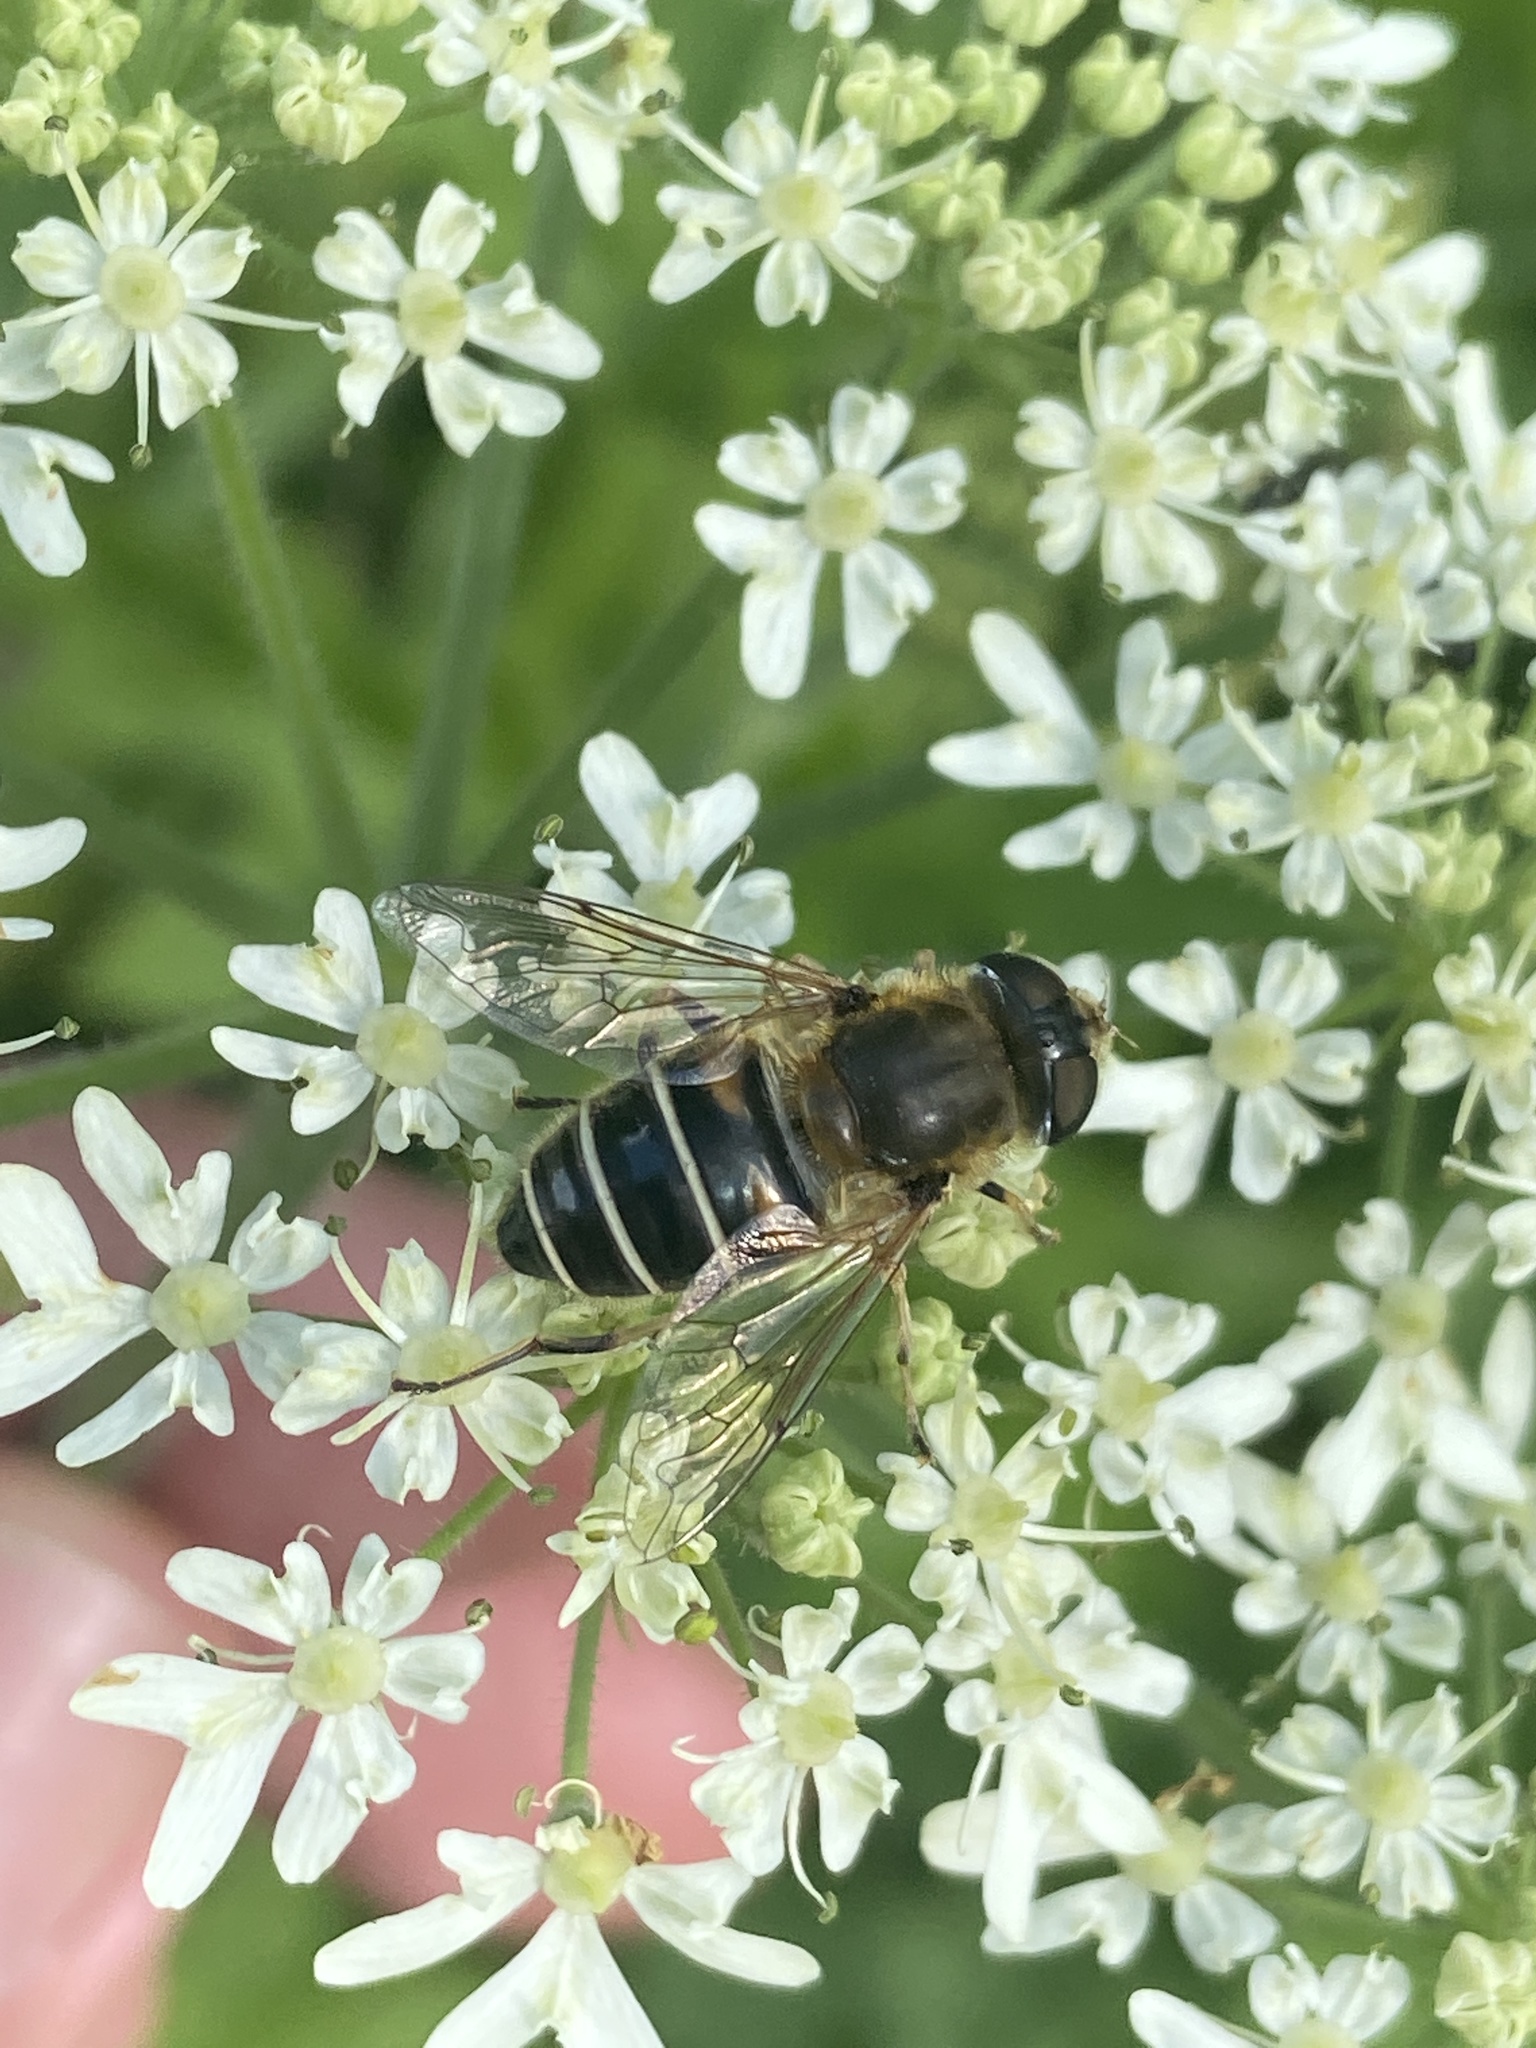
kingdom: Animalia
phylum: Arthropoda
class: Insecta
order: Diptera
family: Syrphidae
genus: Eristalis
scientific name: Eristalis nemorum
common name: Orange-spined drone fly
